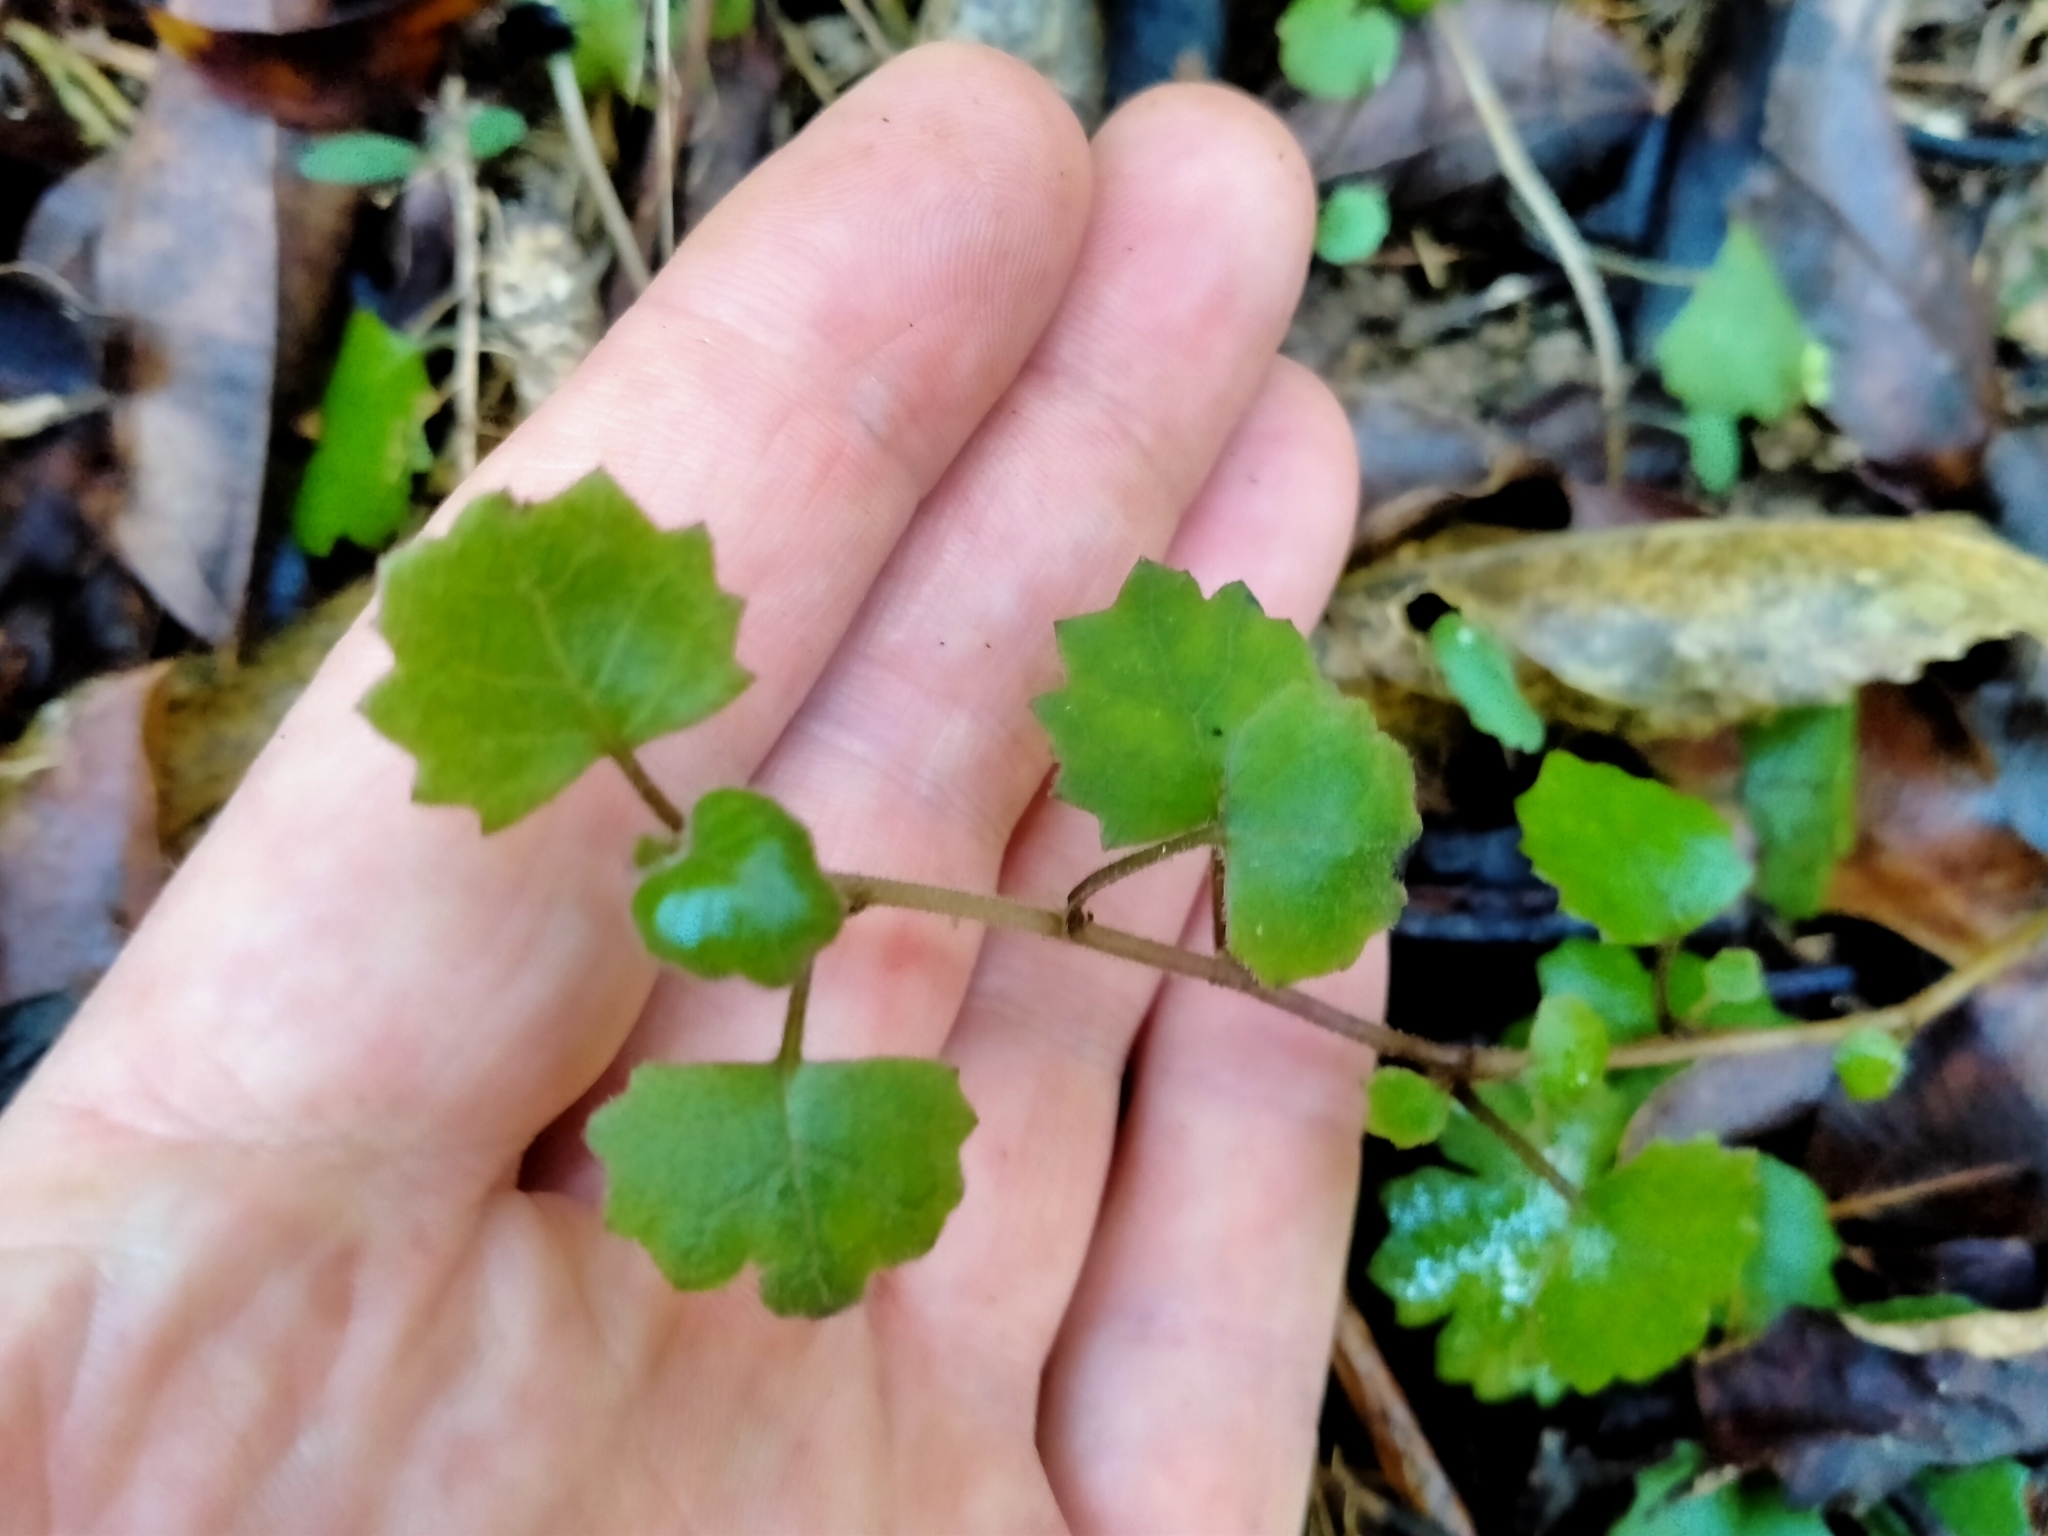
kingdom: Plantae
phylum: Tracheophyta
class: Magnoliopsida
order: Asterales
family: Asteraceae
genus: Brachyglottis
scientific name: Brachyglottis sciadophila
